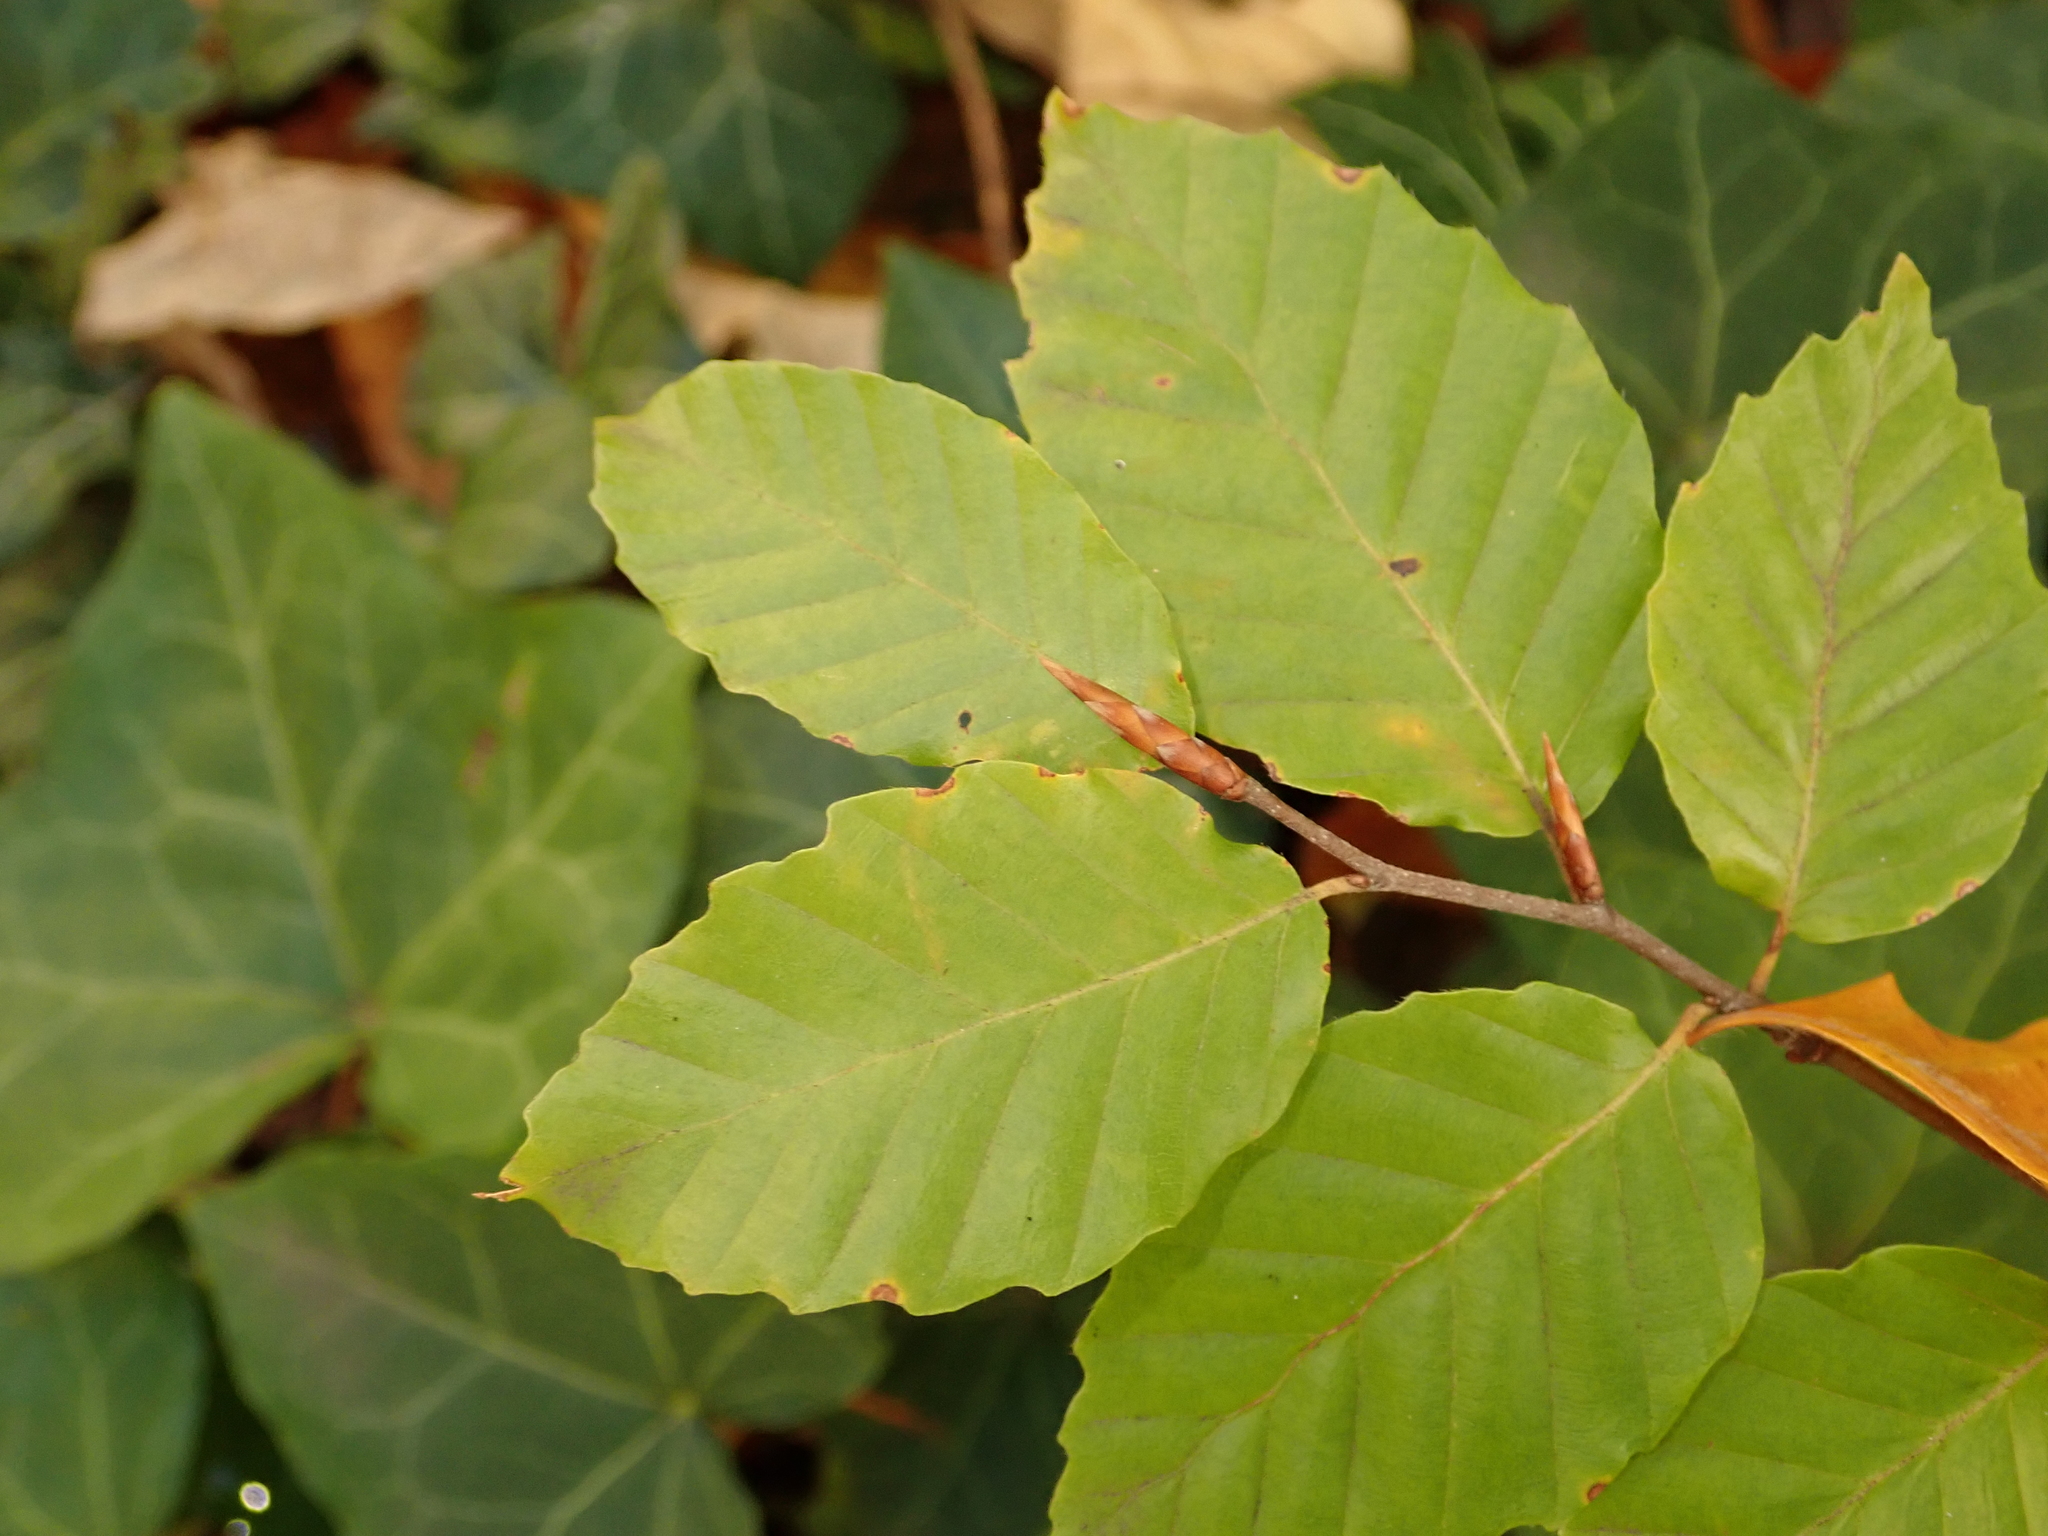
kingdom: Plantae
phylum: Tracheophyta
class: Magnoliopsida
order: Fagales
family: Fagaceae
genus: Fagus
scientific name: Fagus sylvatica
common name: Beech
